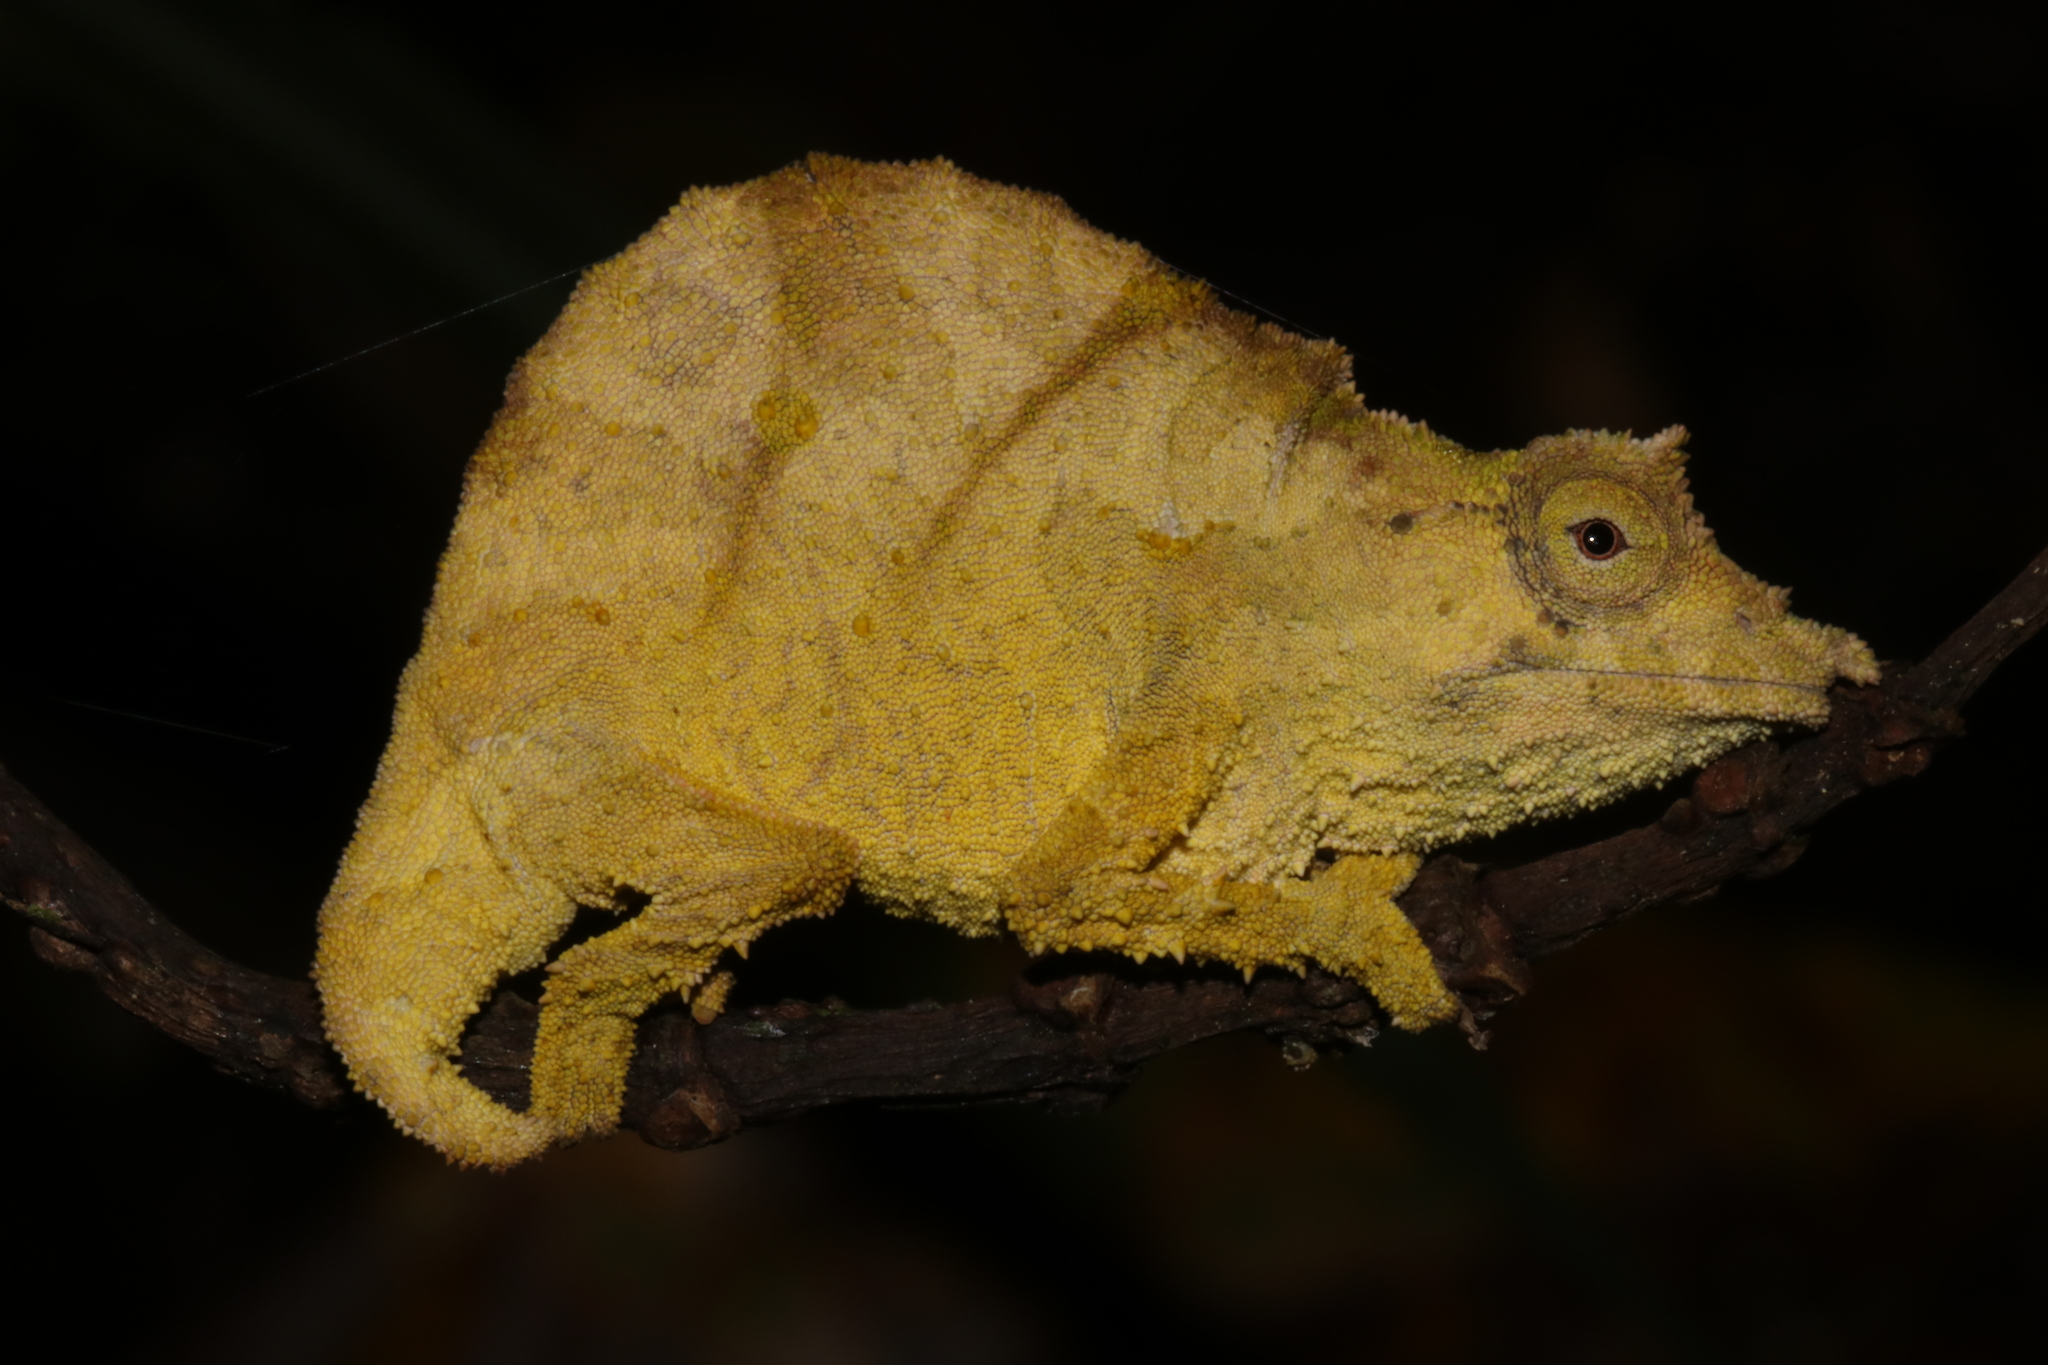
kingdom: Animalia
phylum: Chordata
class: Squamata
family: Chamaeleonidae
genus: Rhampholeon
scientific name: Rhampholeon moyeri
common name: Moyer's pygmy chameleon
